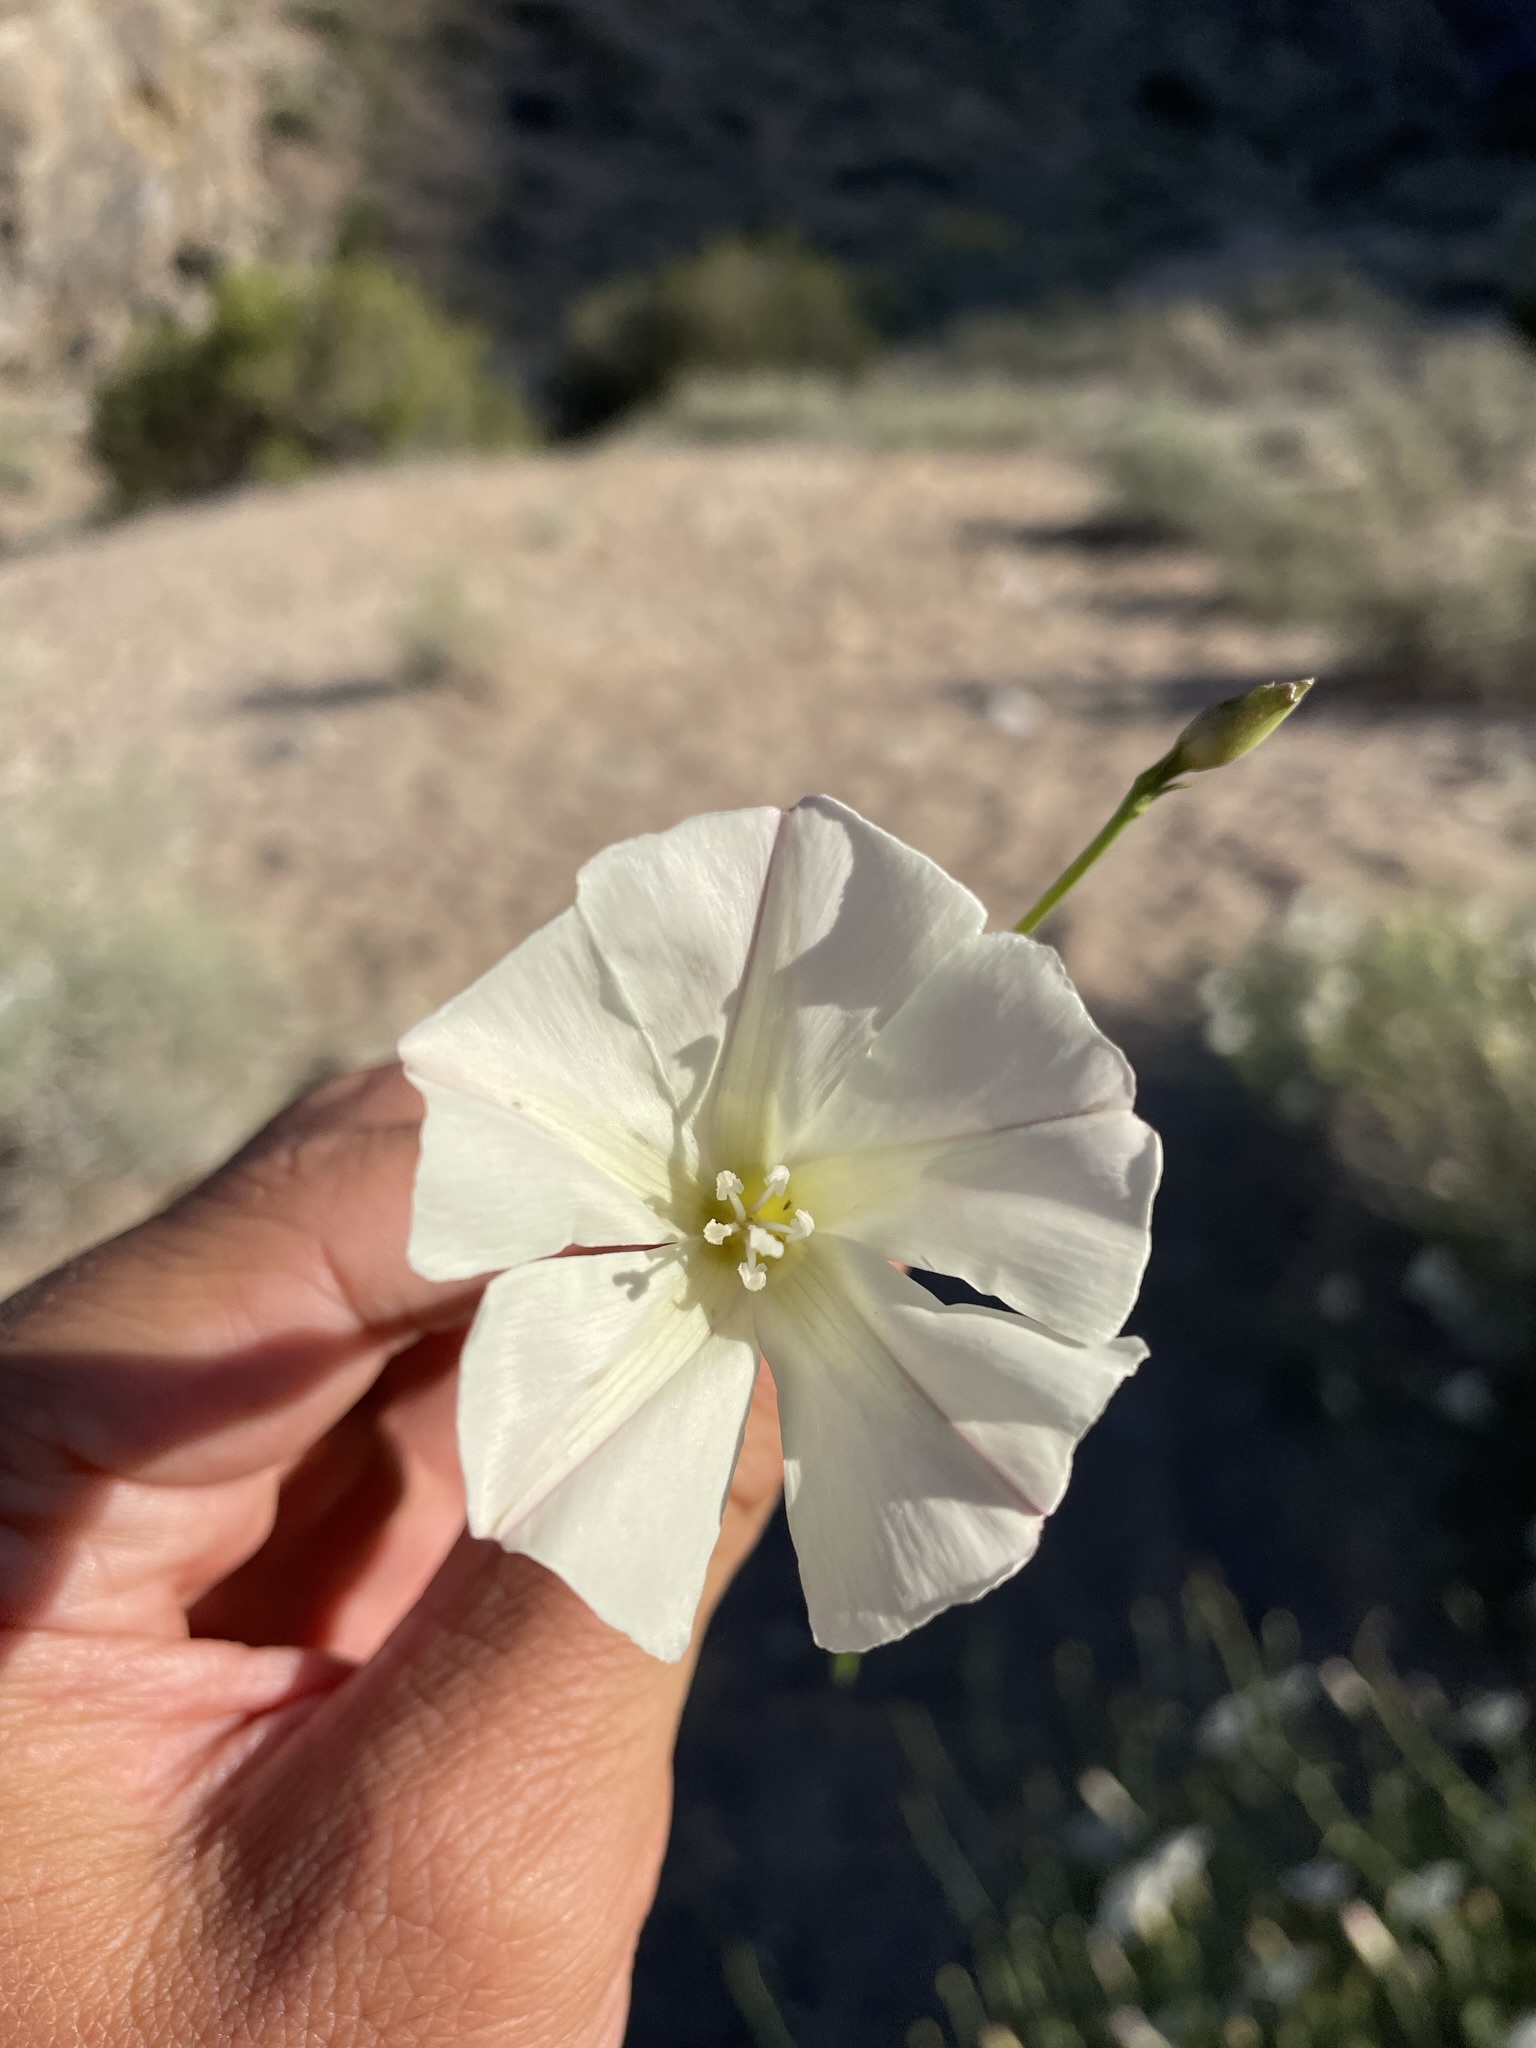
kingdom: Plantae
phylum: Tracheophyta
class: Magnoliopsida
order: Solanales
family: Convolvulaceae
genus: Calystegia
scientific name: Calystegia longipes
